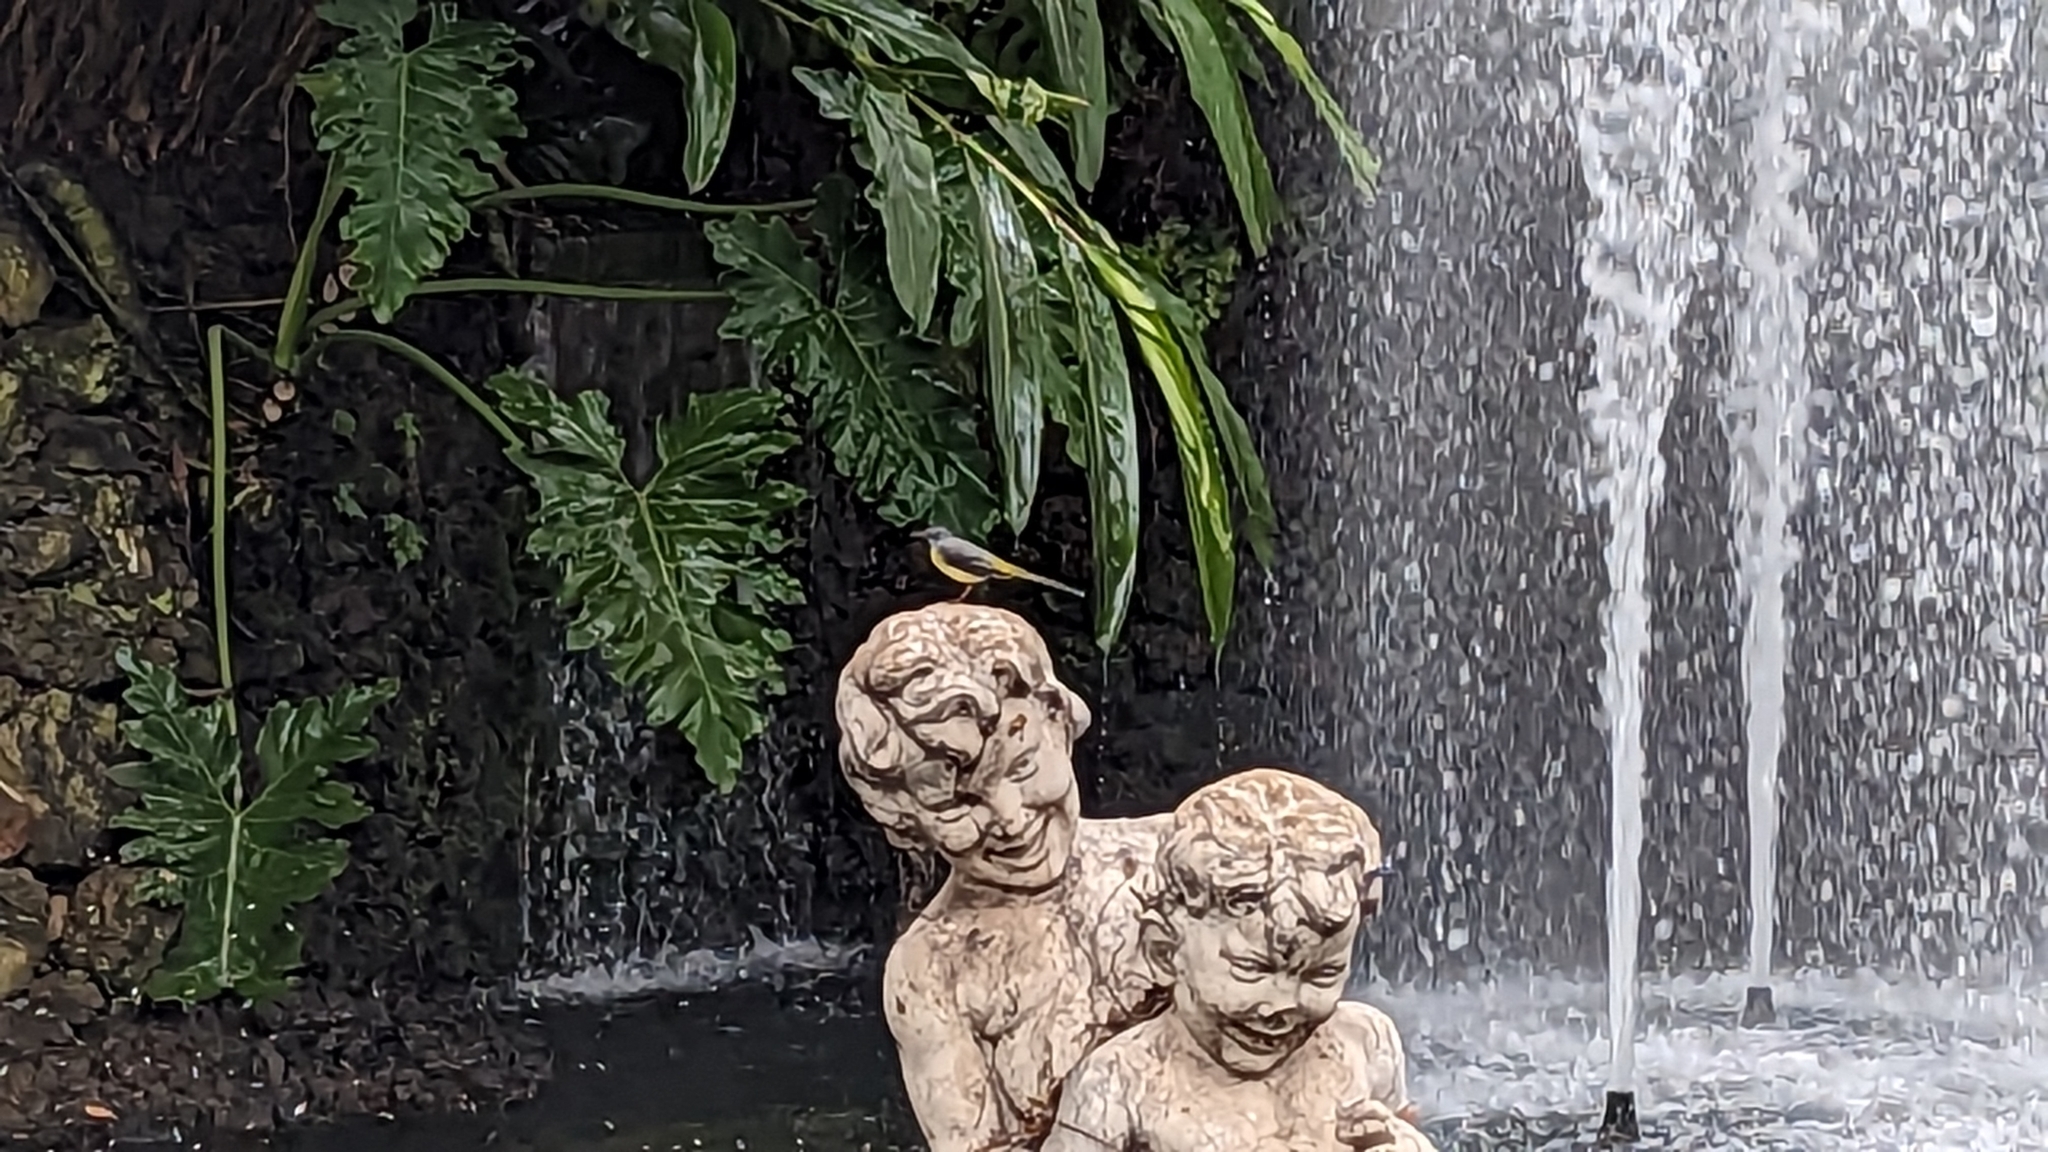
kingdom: Animalia
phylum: Chordata
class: Aves
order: Passeriformes
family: Motacillidae
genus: Motacilla
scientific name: Motacilla cinerea
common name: Grey wagtail
